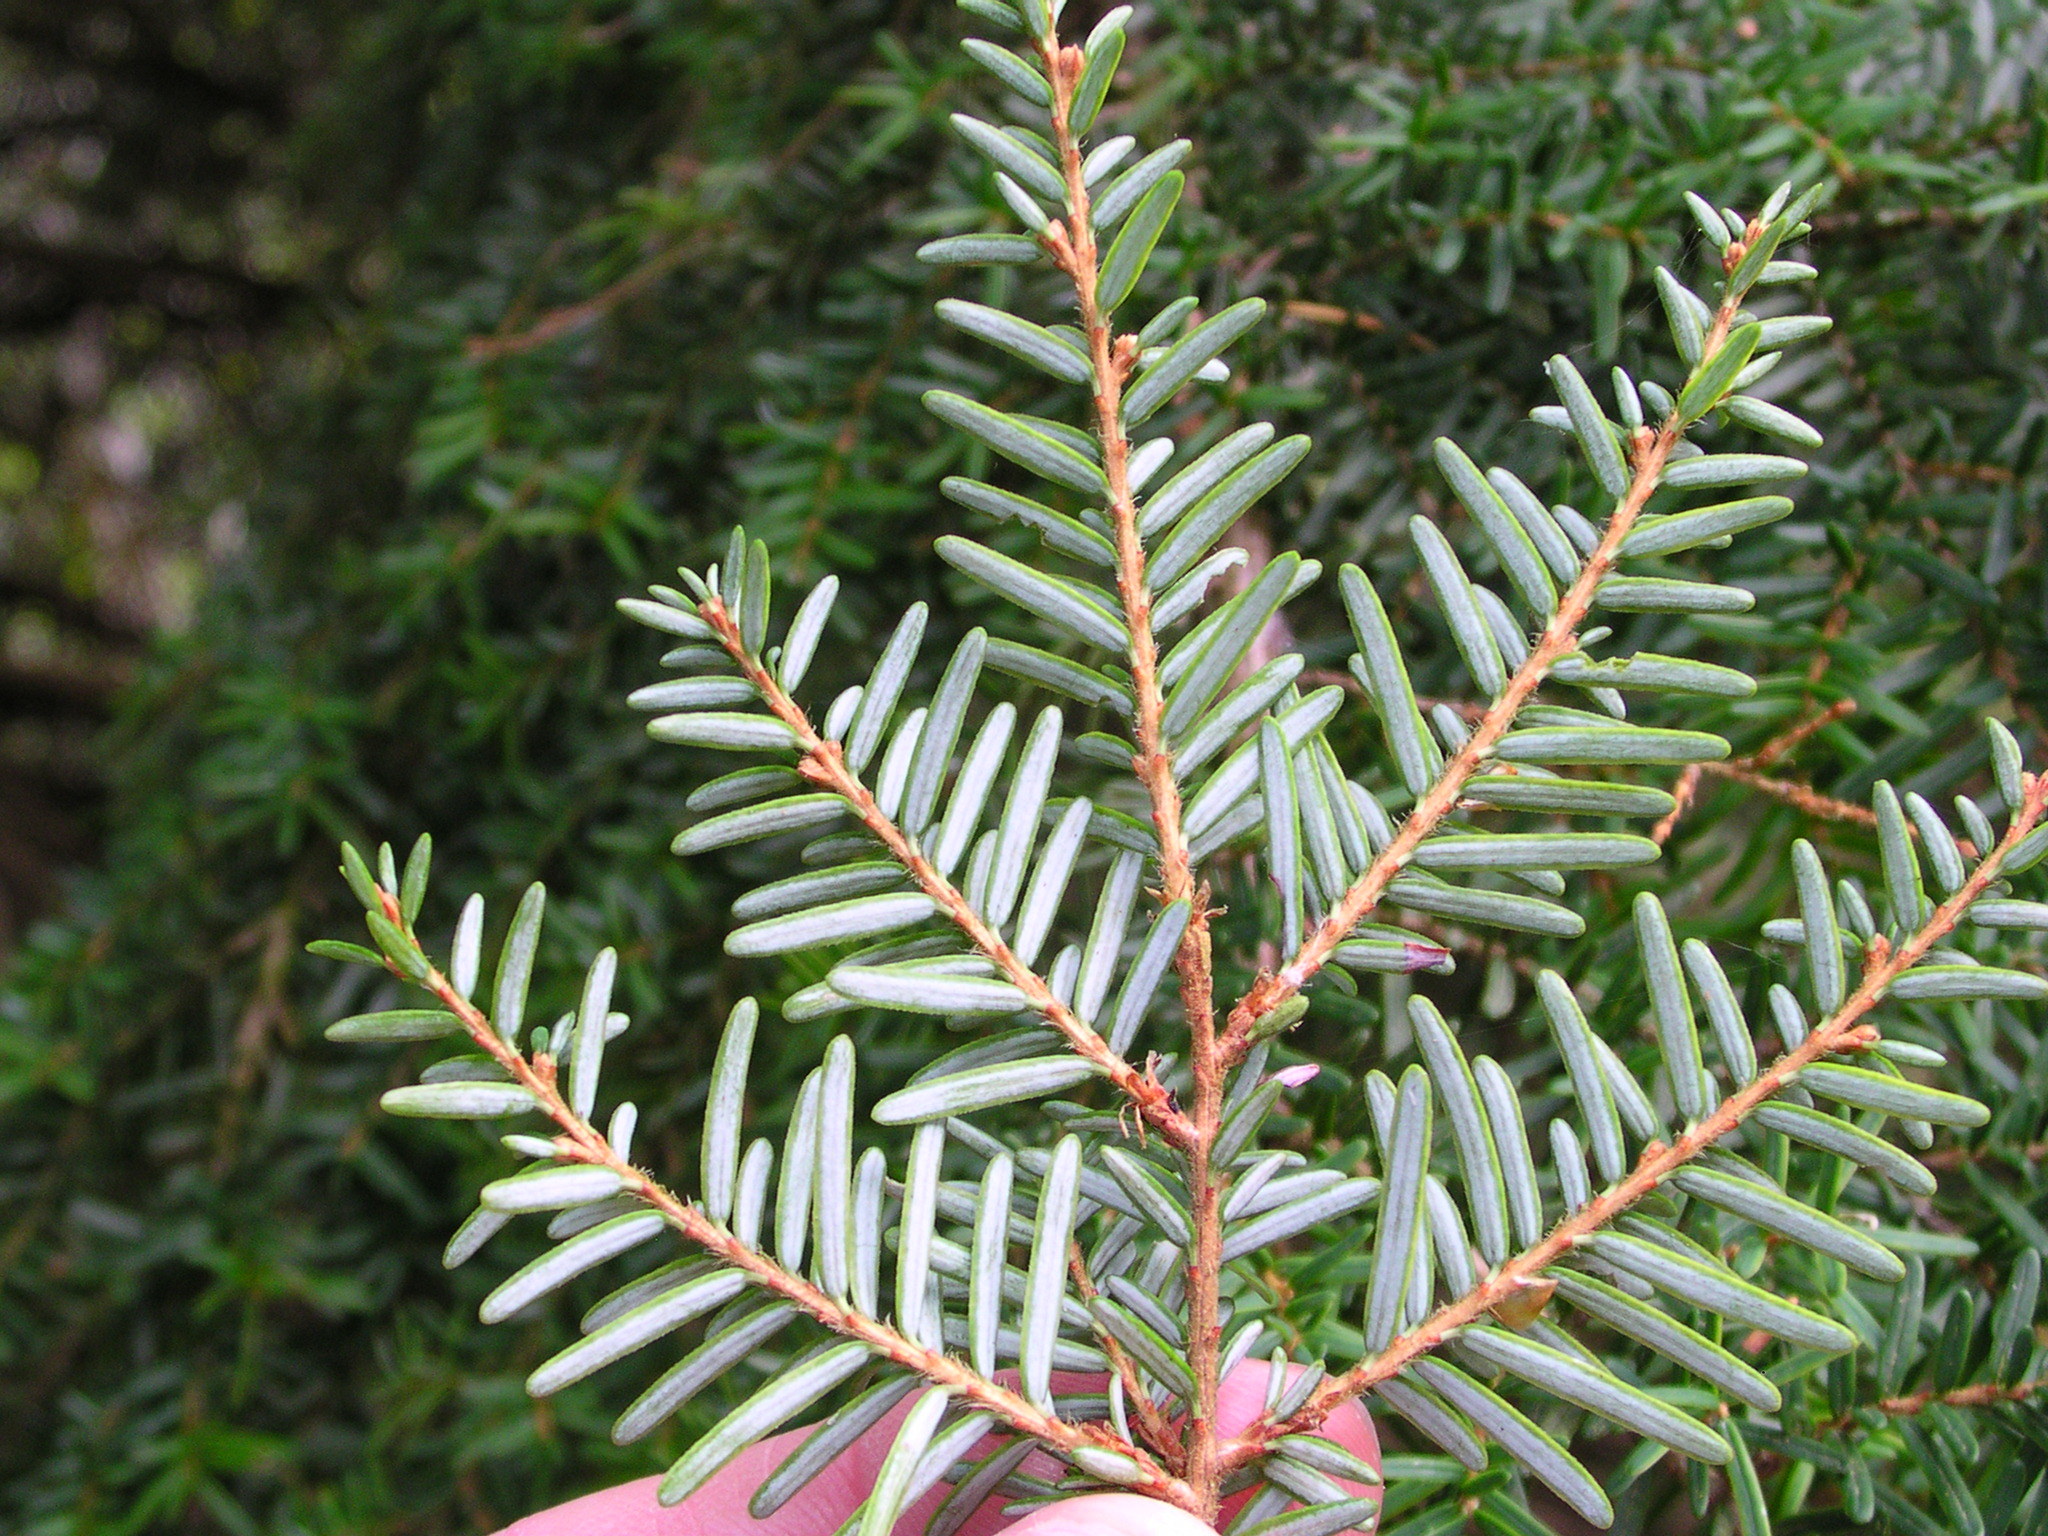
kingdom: Plantae
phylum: Tracheophyta
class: Pinopsida
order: Pinales
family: Pinaceae
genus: Tsuga
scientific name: Tsuga heterophylla
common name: Western hemlock
